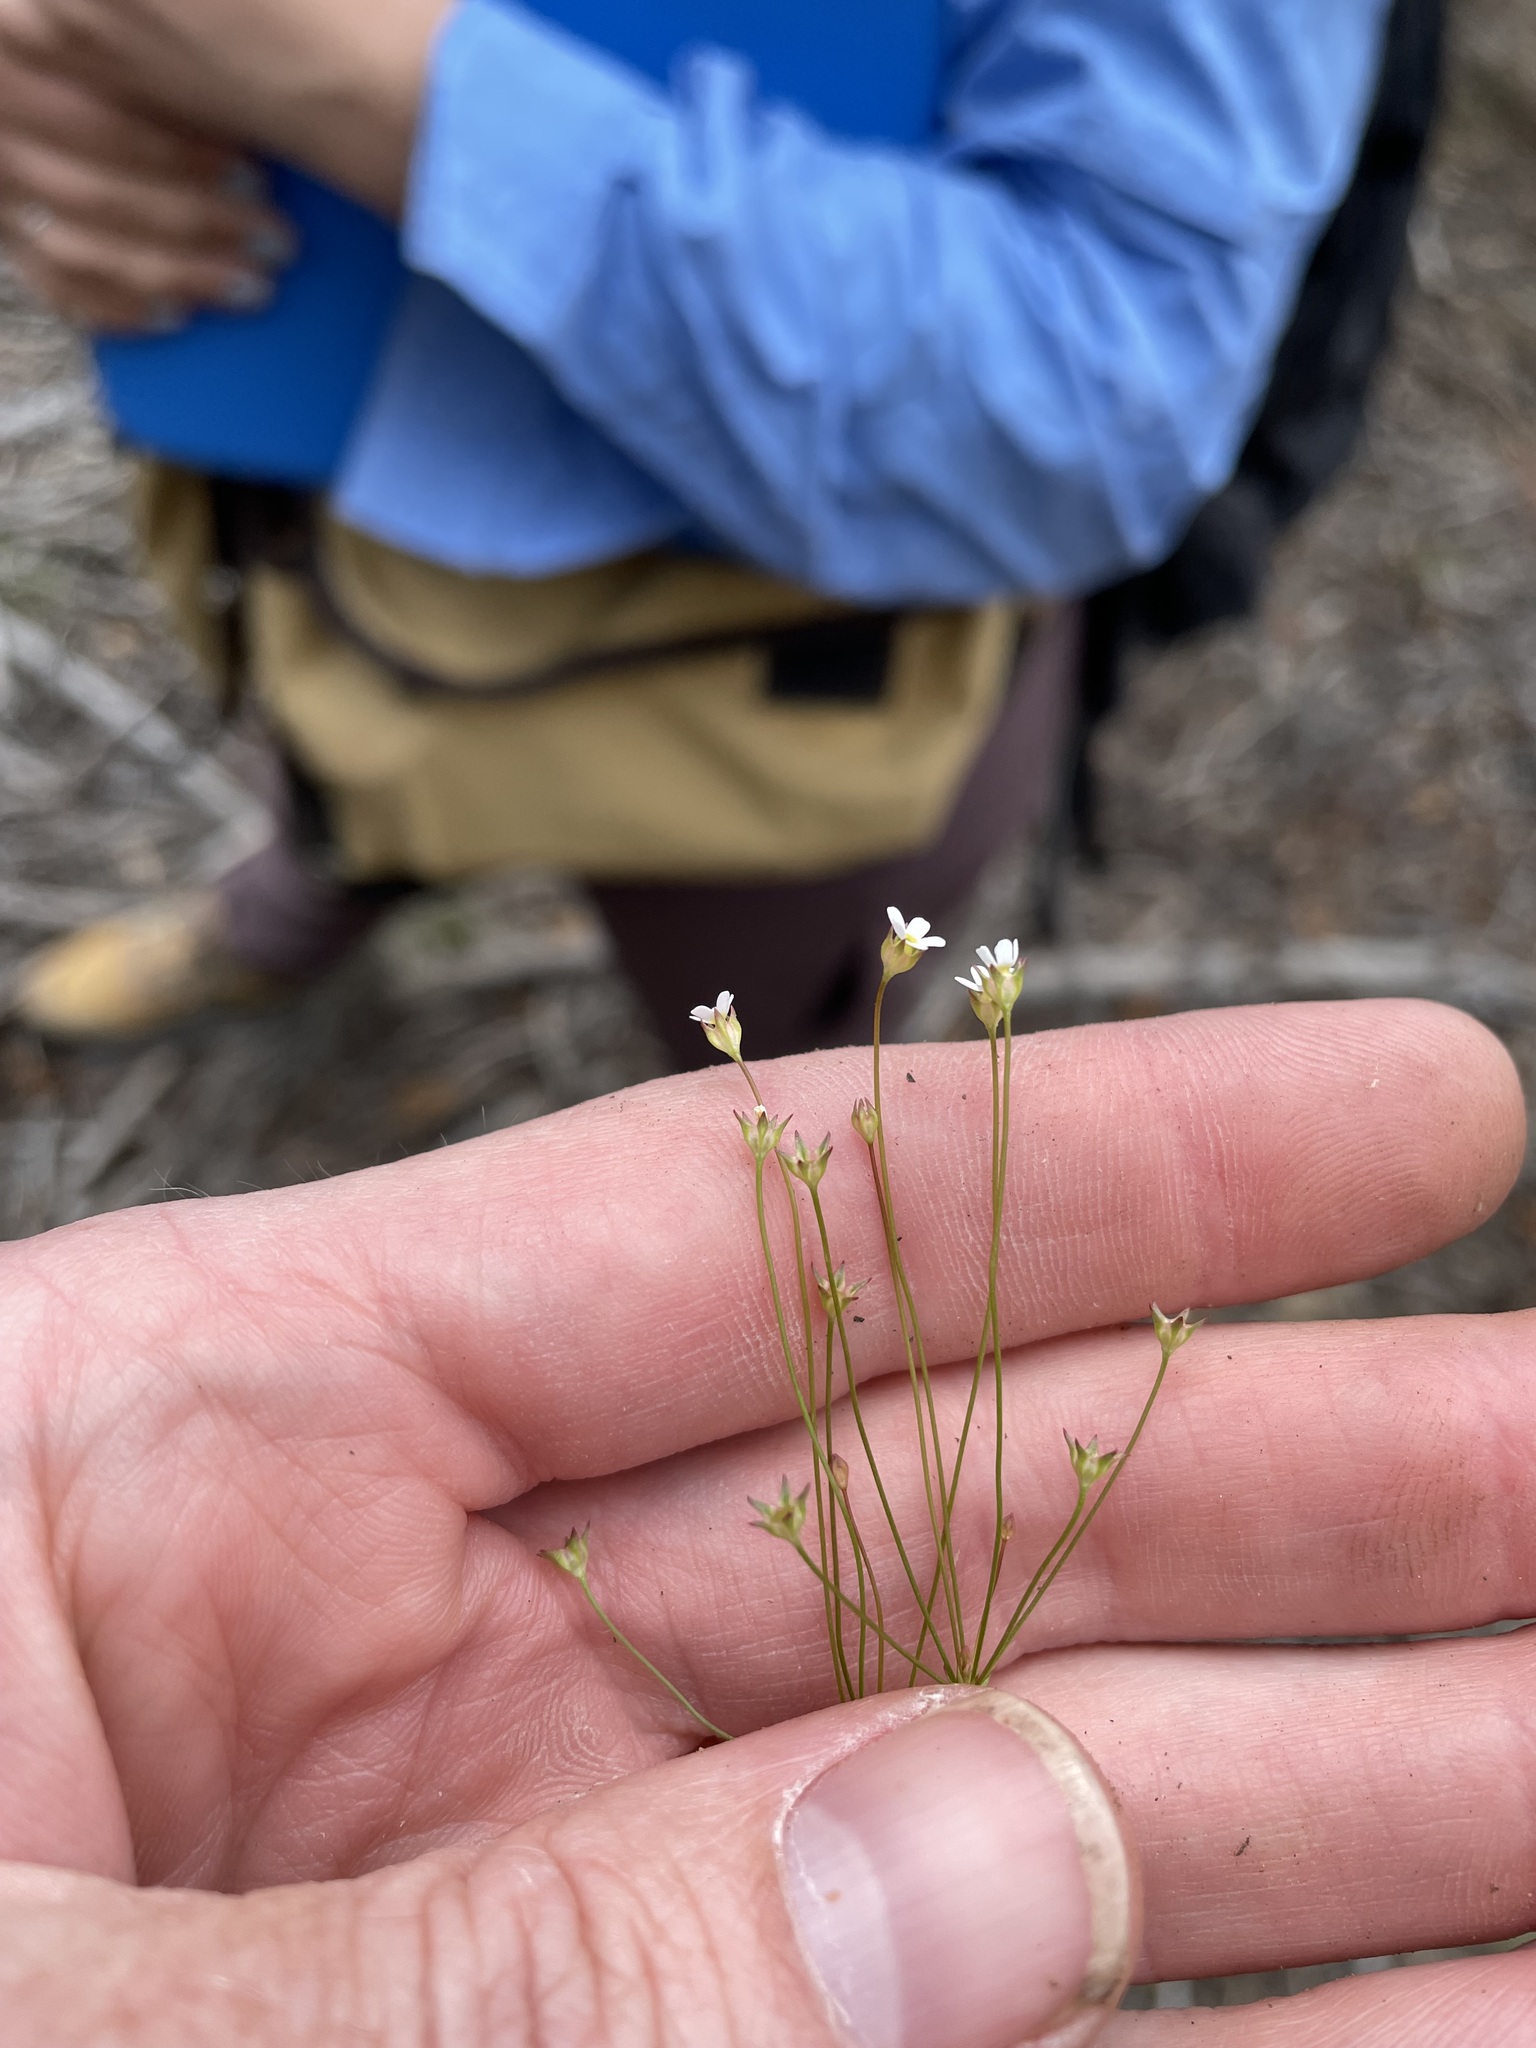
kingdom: Plantae
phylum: Tracheophyta
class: Magnoliopsida
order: Ericales
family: Primulaceae
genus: Androsace
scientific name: Androsace septentrionalis
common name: Hairy northern fairy-candelabra
